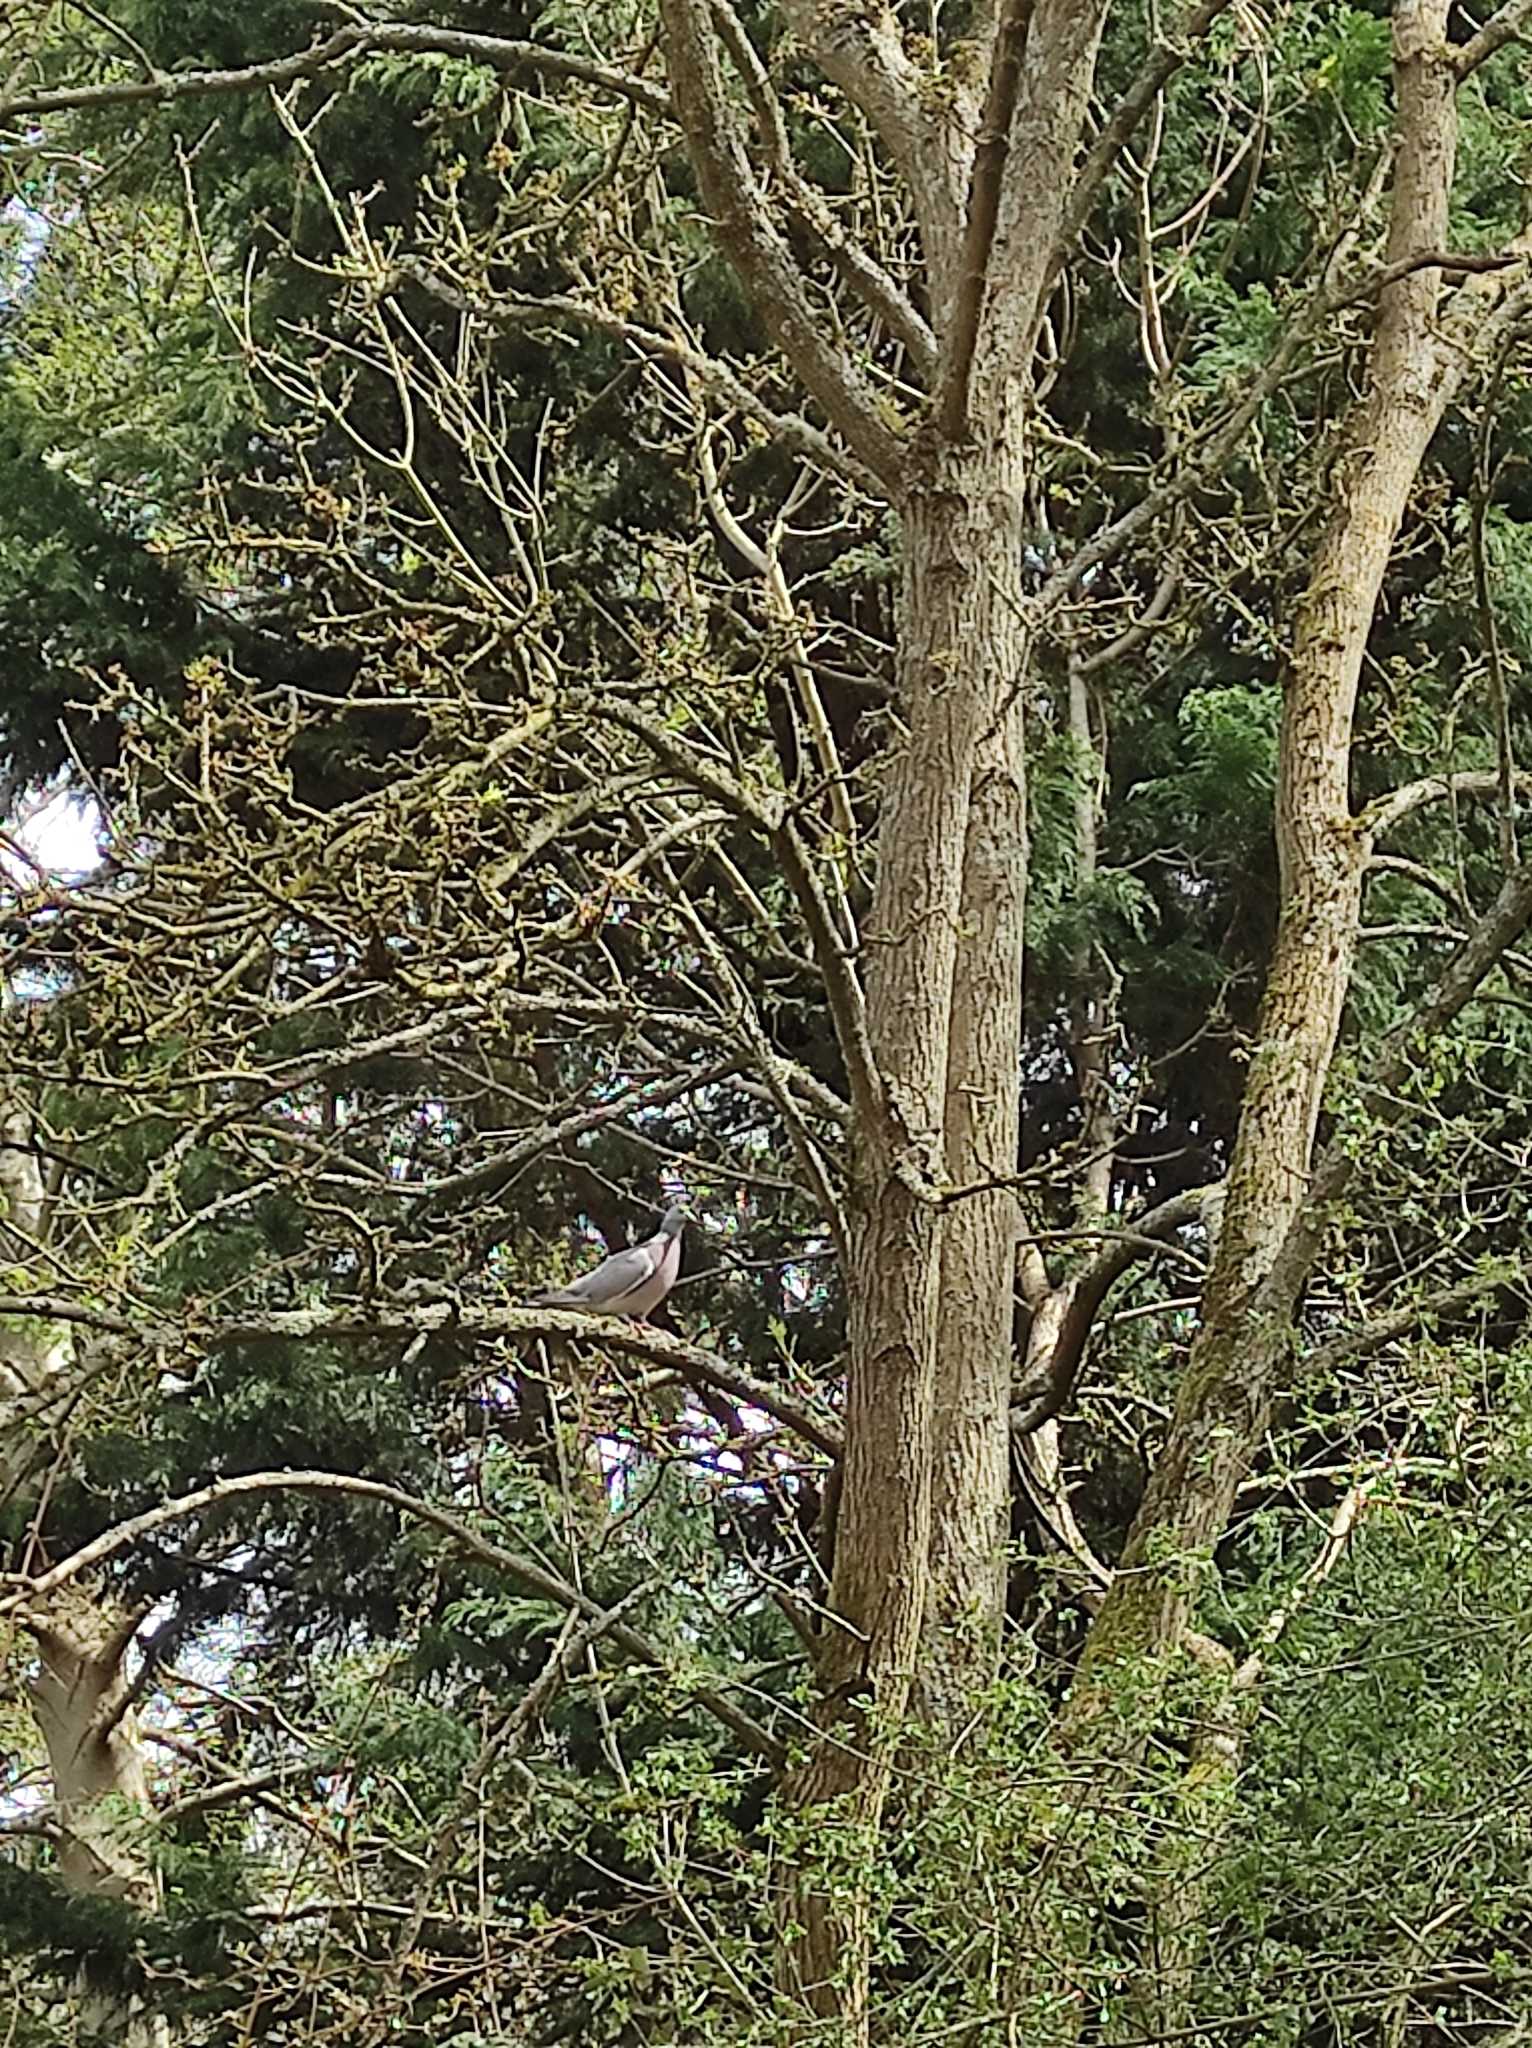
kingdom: Animalia
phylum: Chordata
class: Aves
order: Columbiformes
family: Columbidae
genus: Columba
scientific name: Columba palumbus
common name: Common wood pigeon
